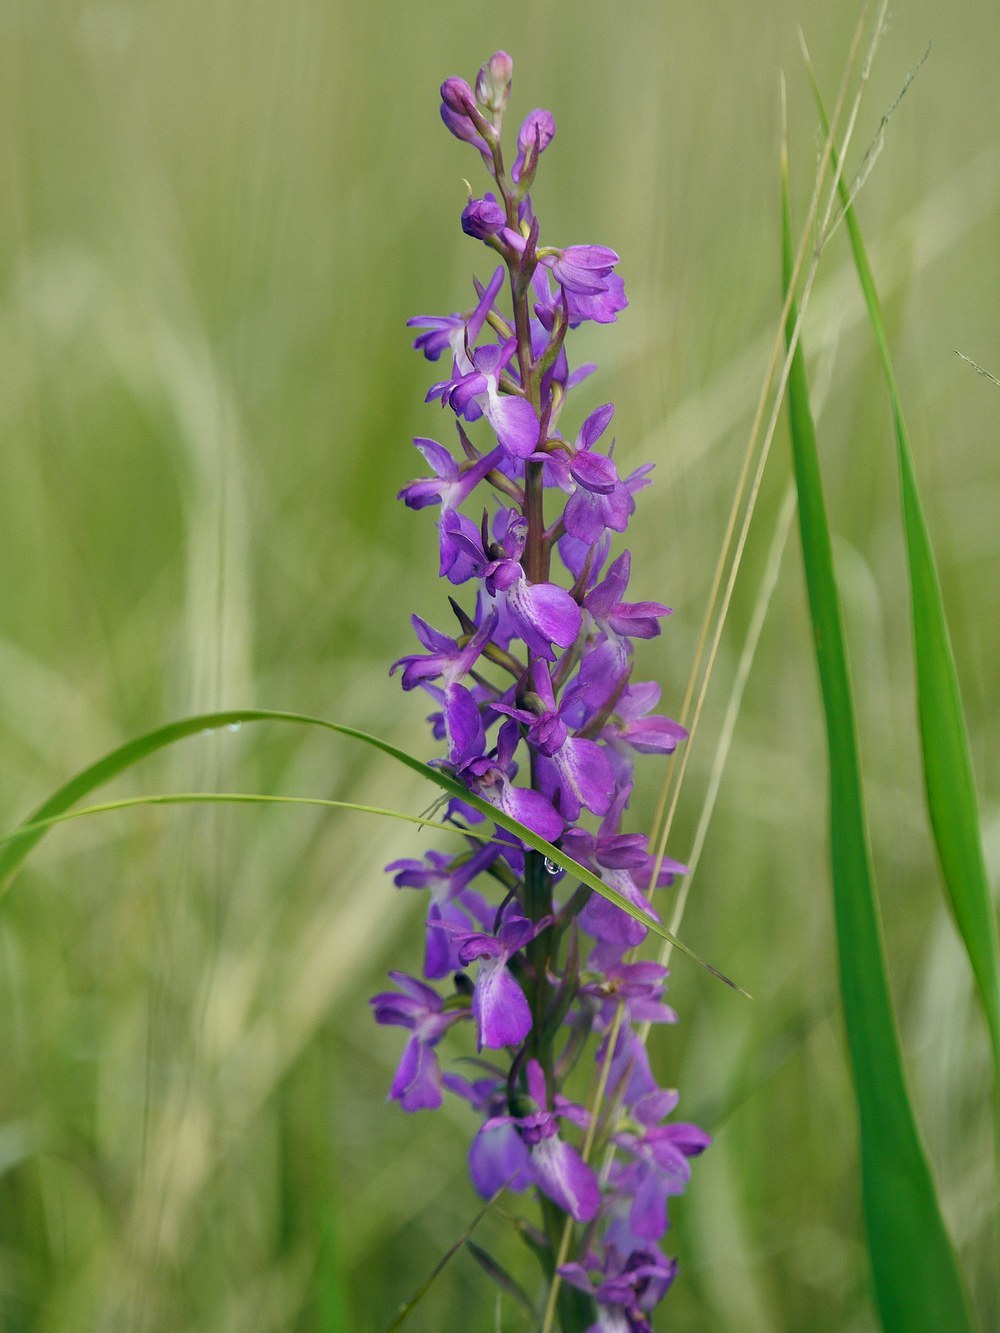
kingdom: Plantae
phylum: Tracheophyta
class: Liliopsida
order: Asparagales
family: Orchidaceae
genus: Anacamptis
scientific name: Anacamptis palustris
